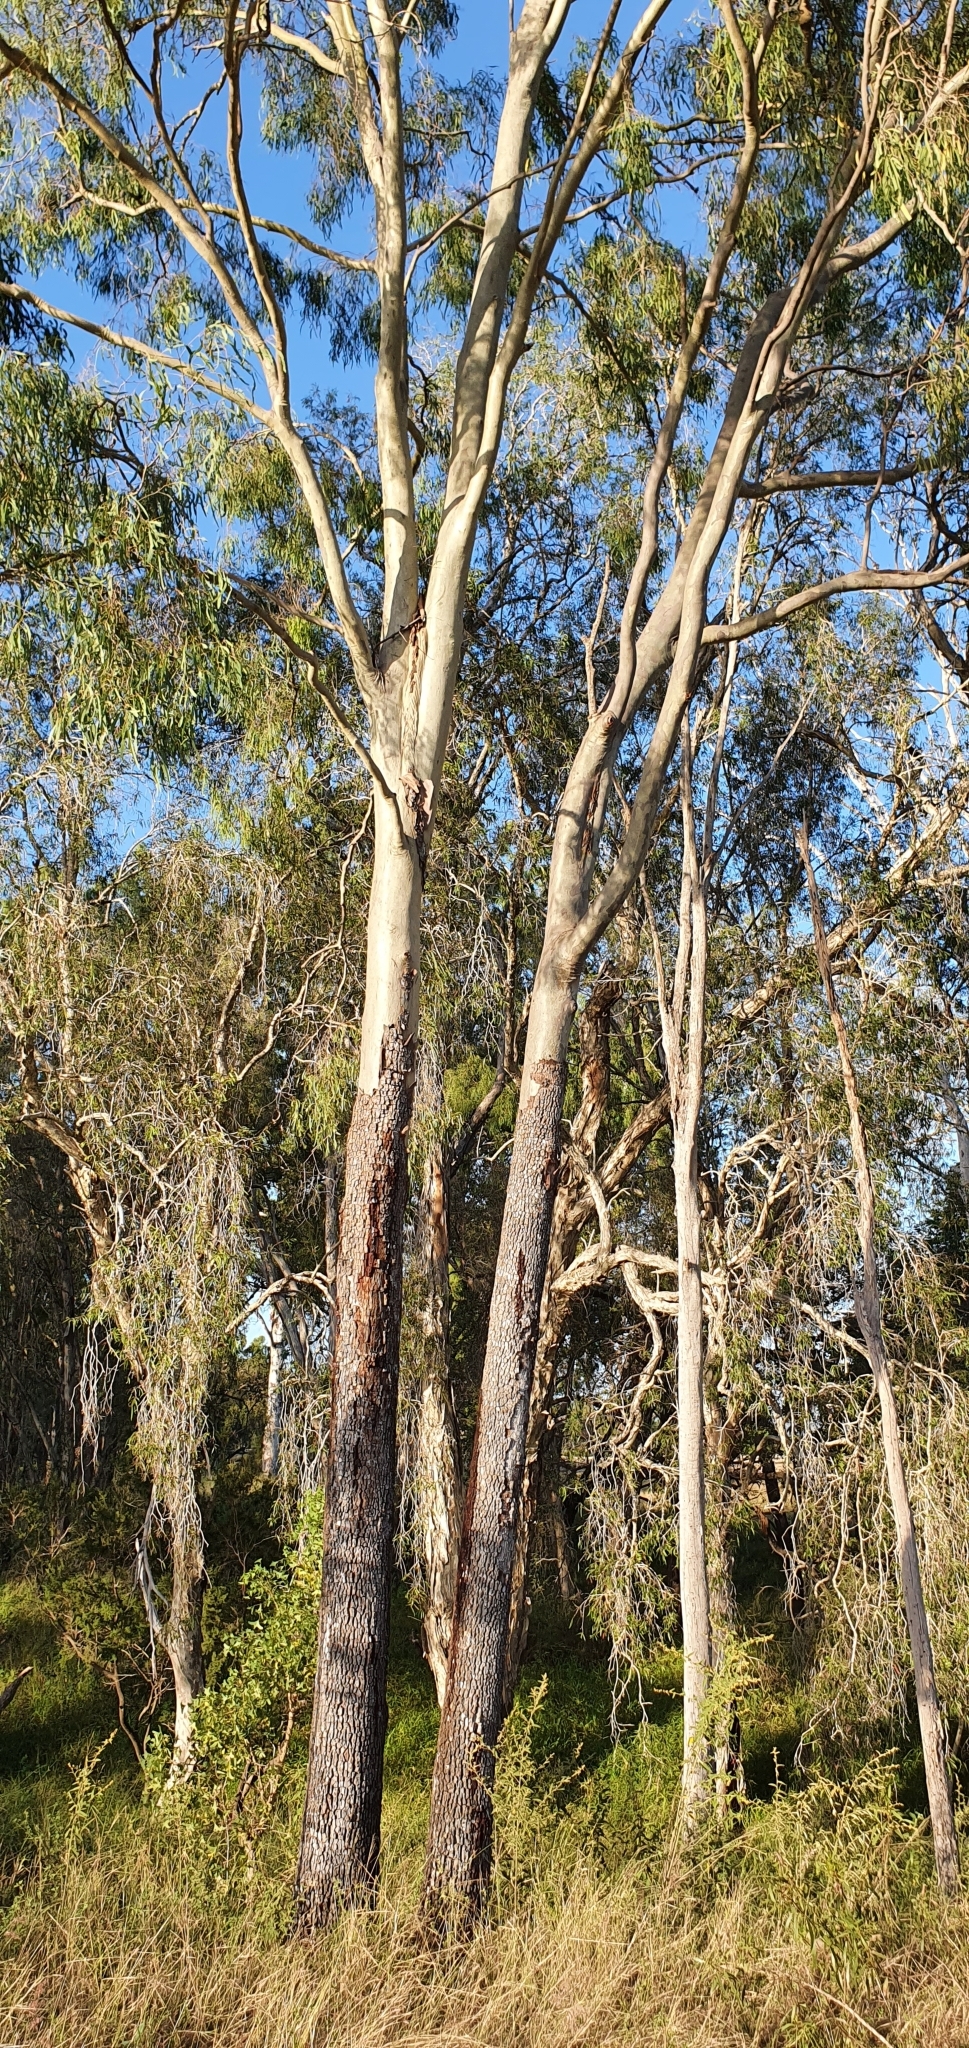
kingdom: Plantae
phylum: Tracheophyta
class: Magnoliopsida
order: Myrtales
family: Myrtaceae
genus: Corymbia
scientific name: Corymbia tessellaris
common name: Carbeen
